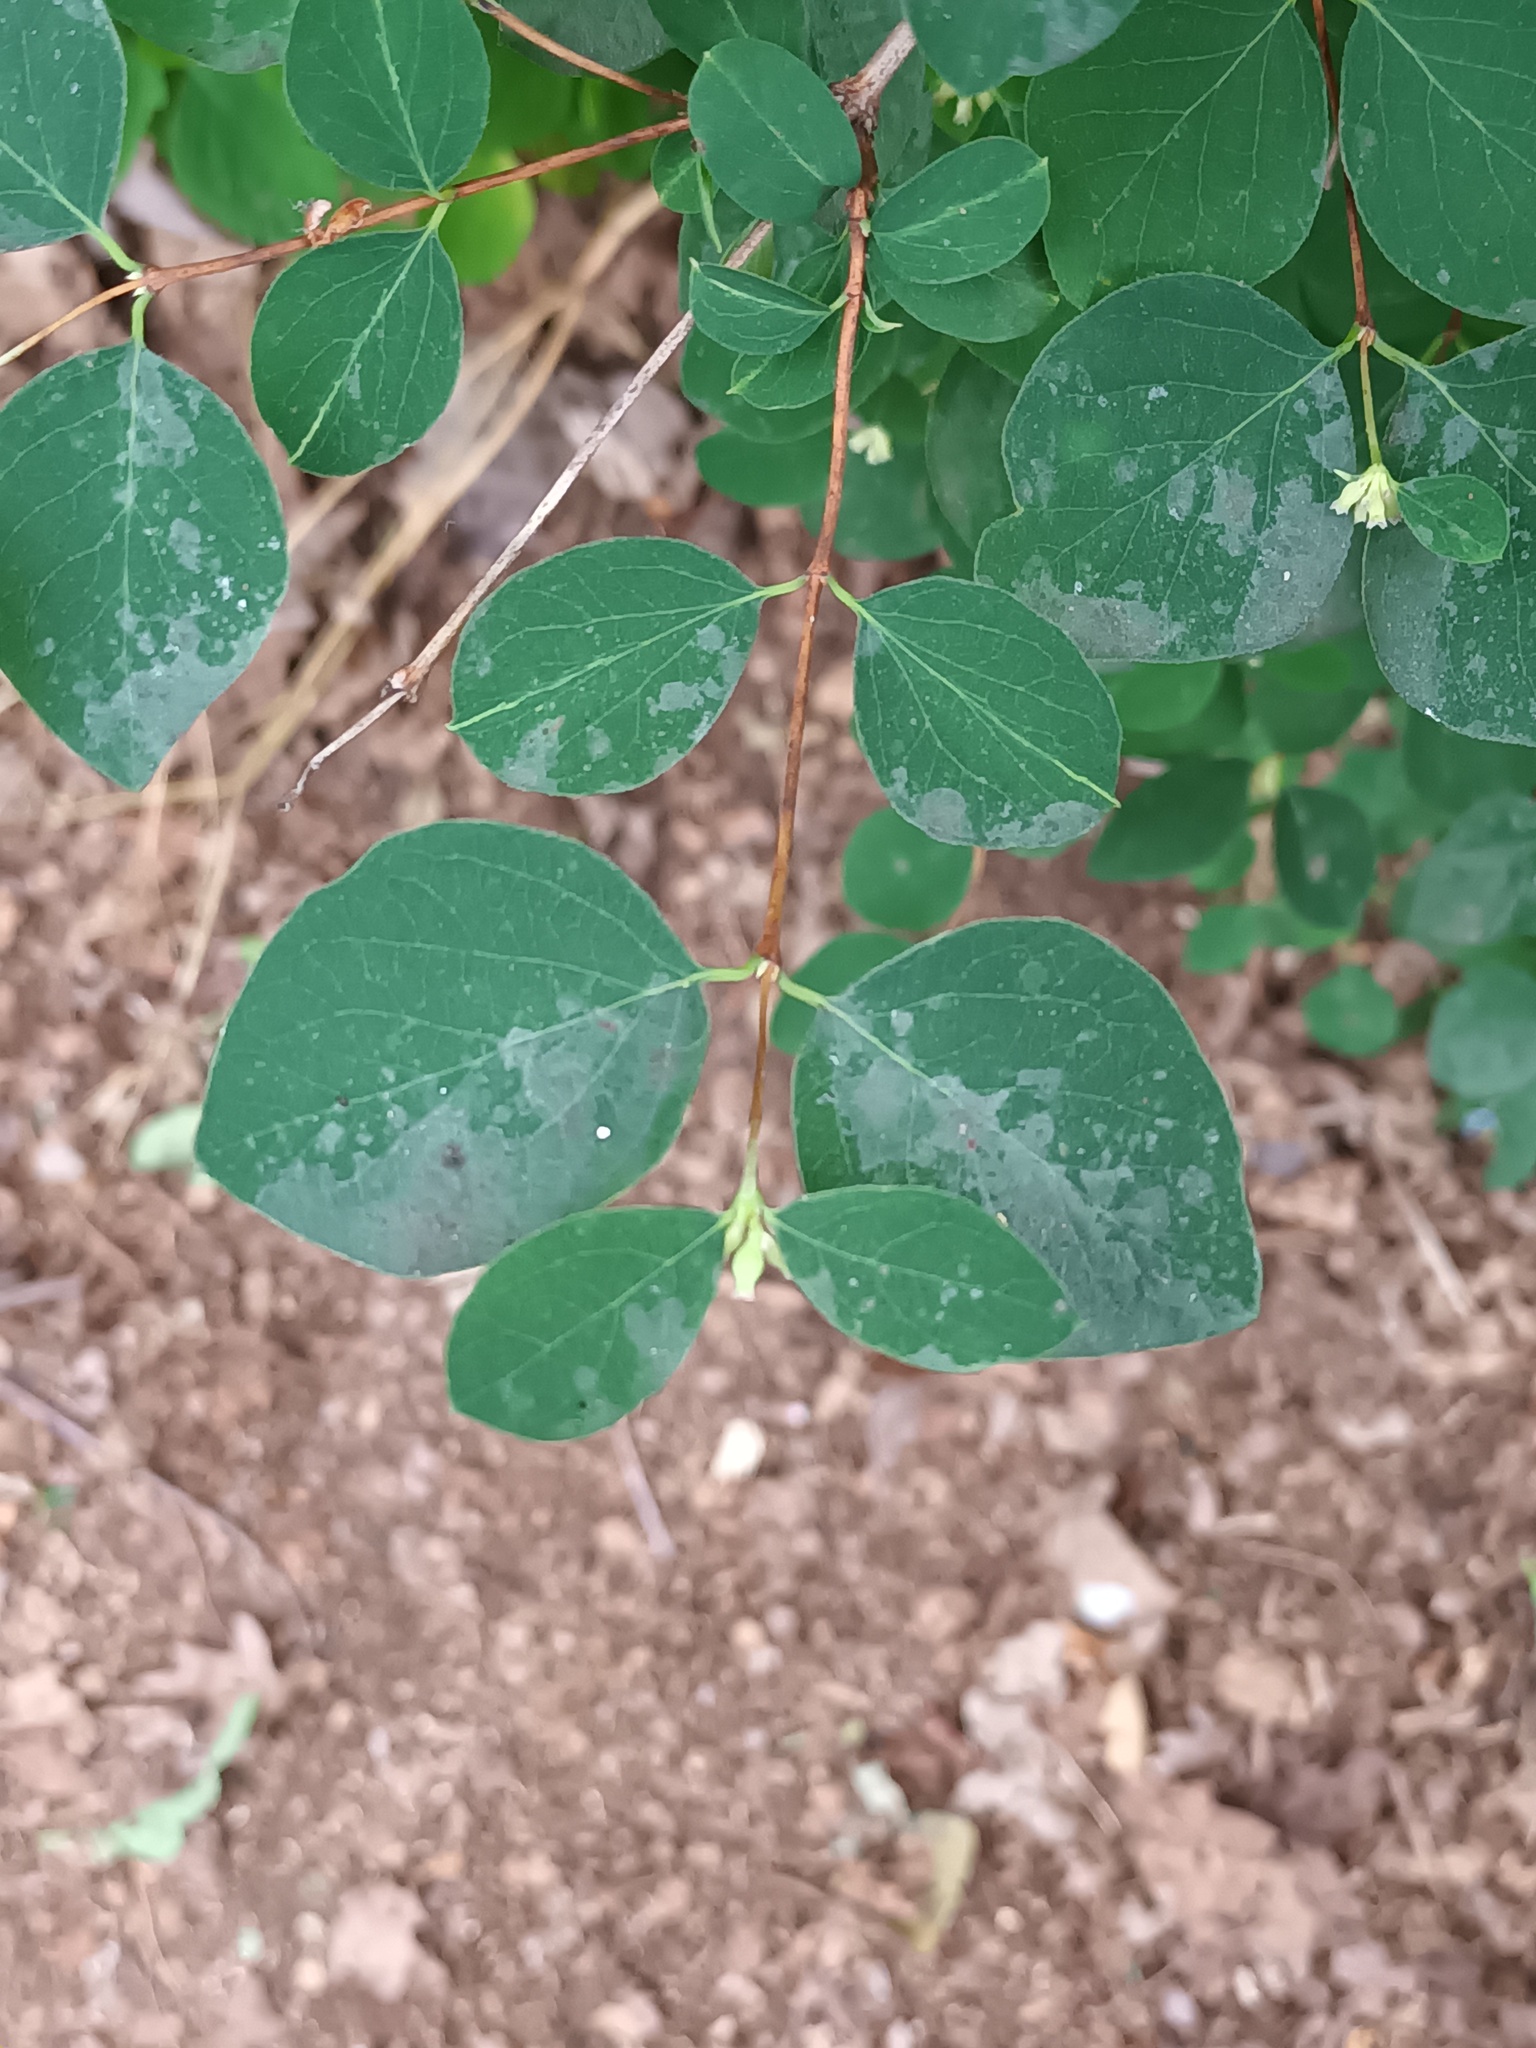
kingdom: Plantae
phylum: Tracheophyta
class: Magnoliopsida
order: Dipsacales
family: Caprifoliaceae
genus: Symphoricarpos
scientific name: Symphoricarpos albus
